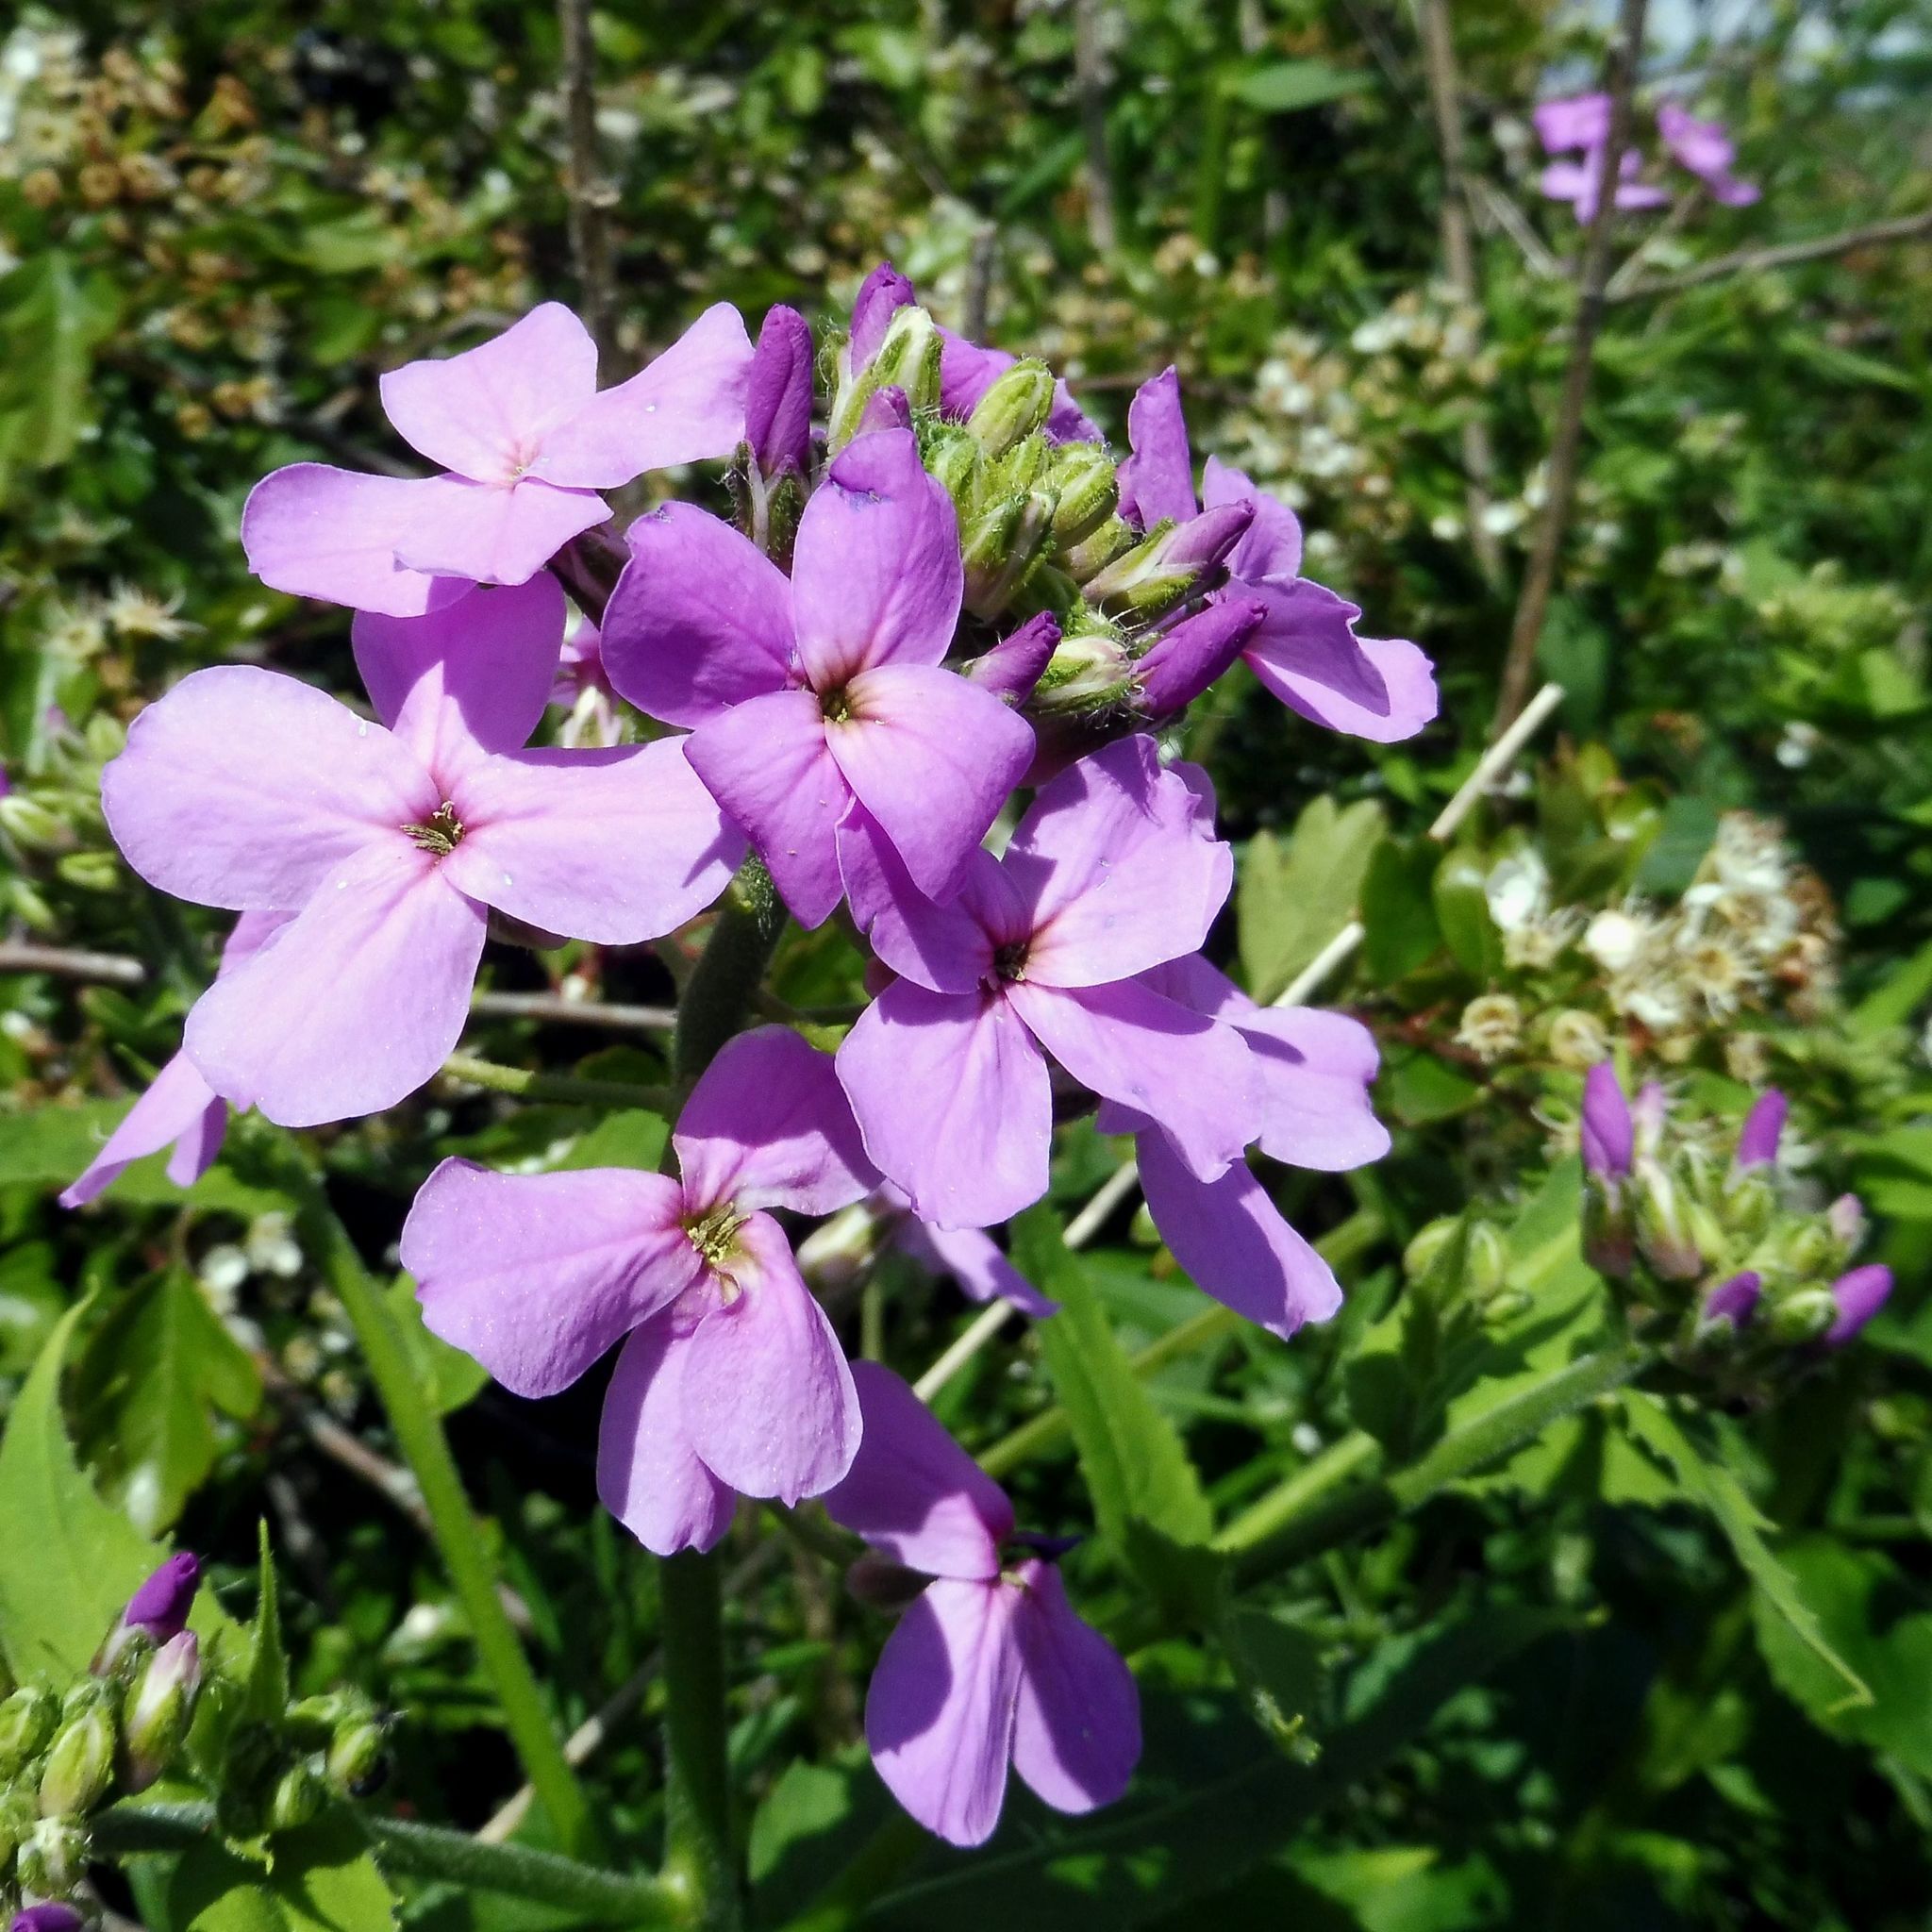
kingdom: Plantae
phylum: Tracheophyta
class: Magnoliopsida
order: Brassicales
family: Brassicaceae
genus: Hesperis
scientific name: Hesperis matronalis
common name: Dame's-violet
